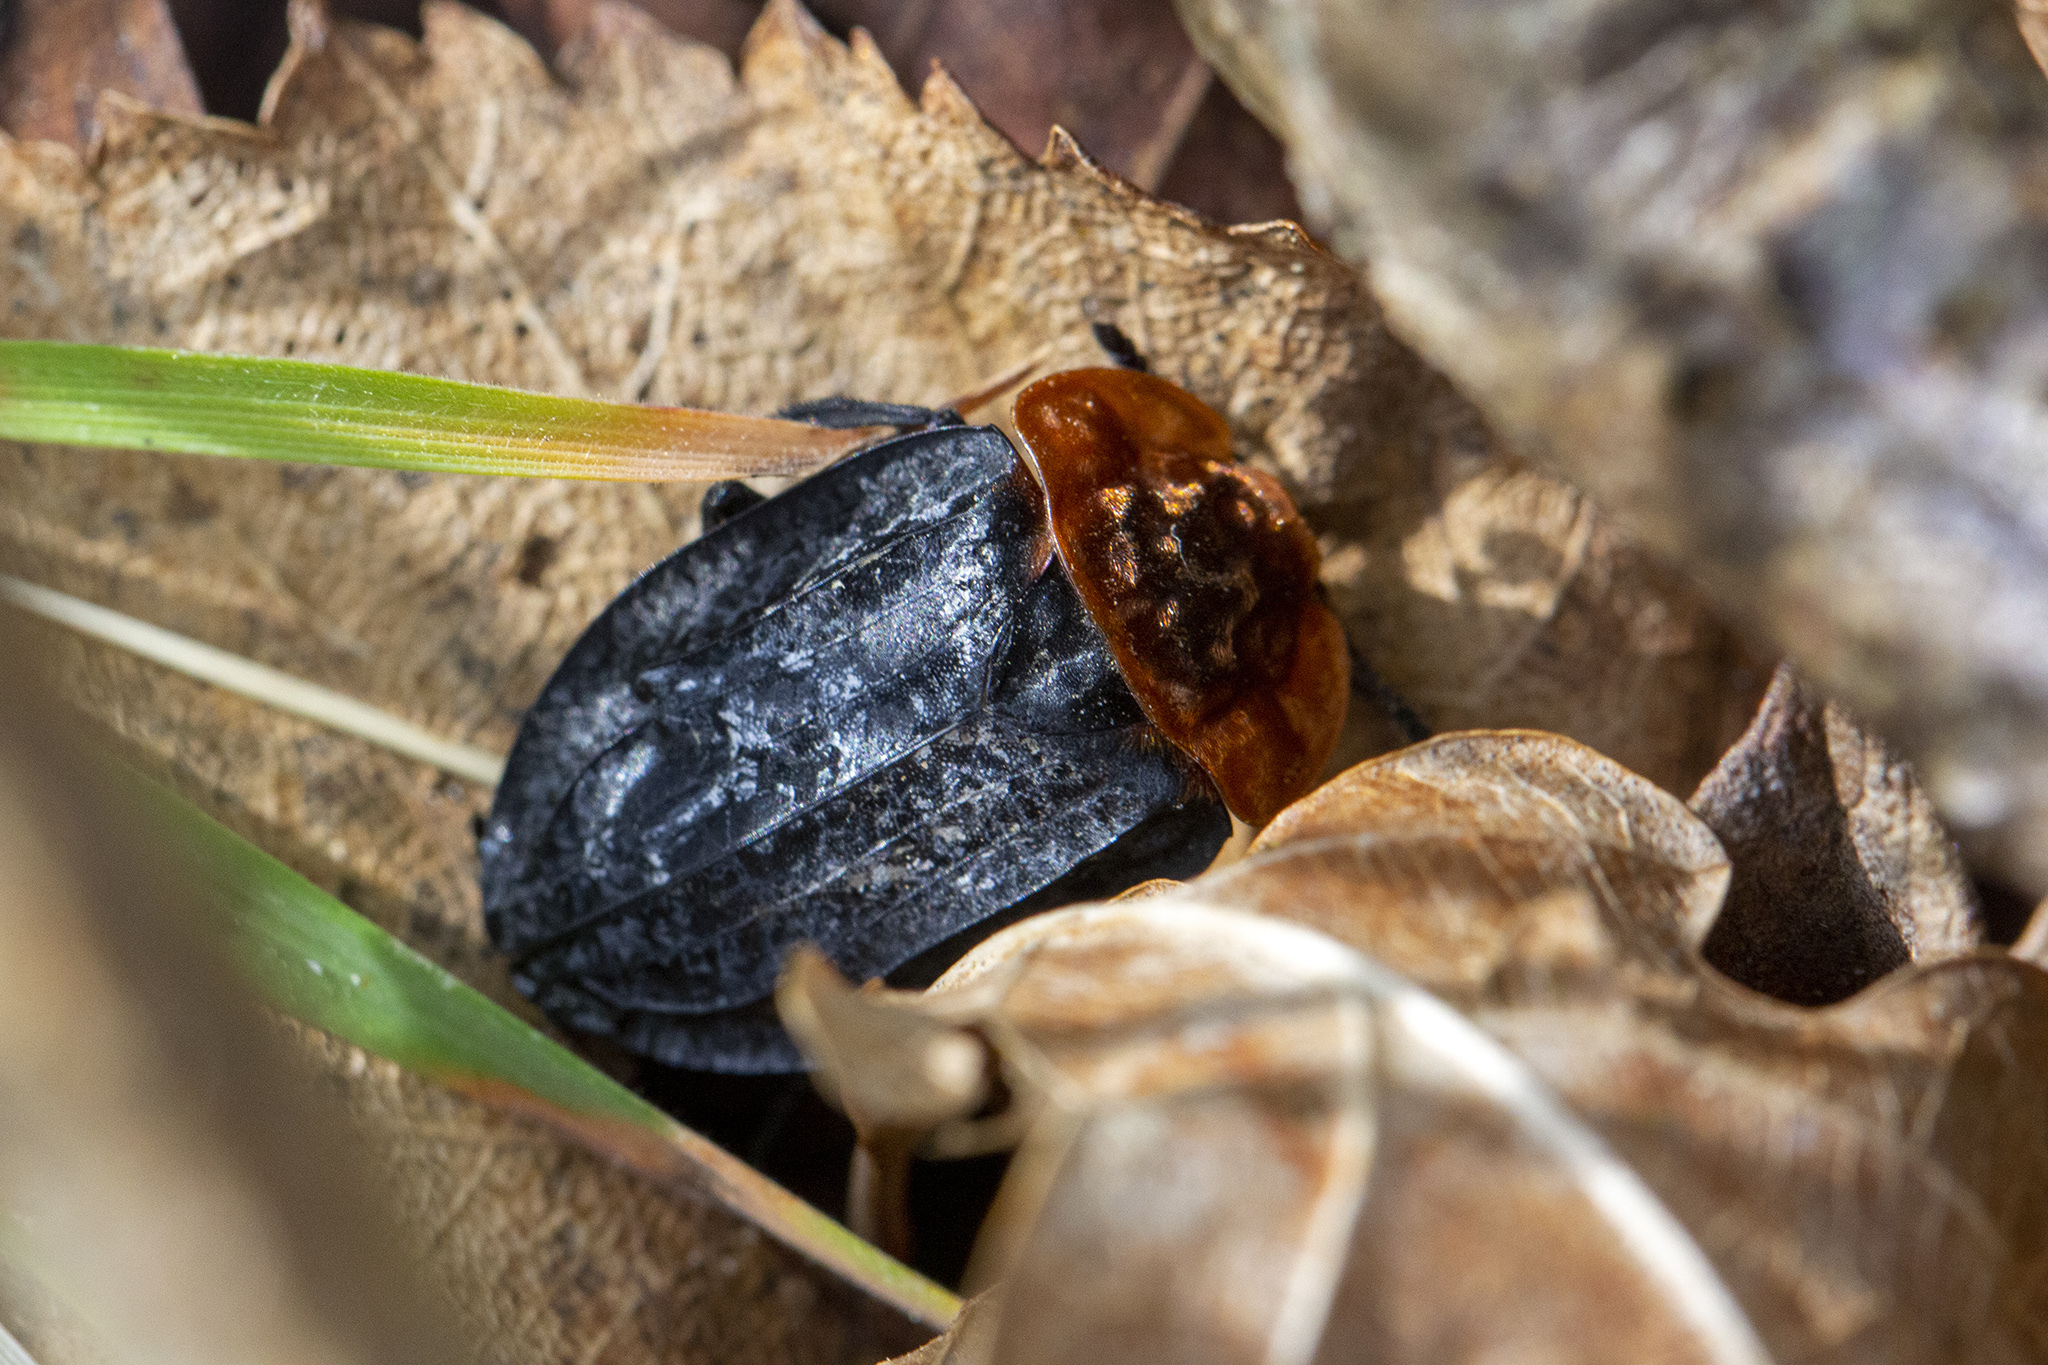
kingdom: Animalia
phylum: Arthropoda
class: Insecta
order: Coleoptera
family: Staphylinidae
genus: Oiceoptoma
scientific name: Oiceoptoma thoracicum
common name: Red-breasted carrion beetle
